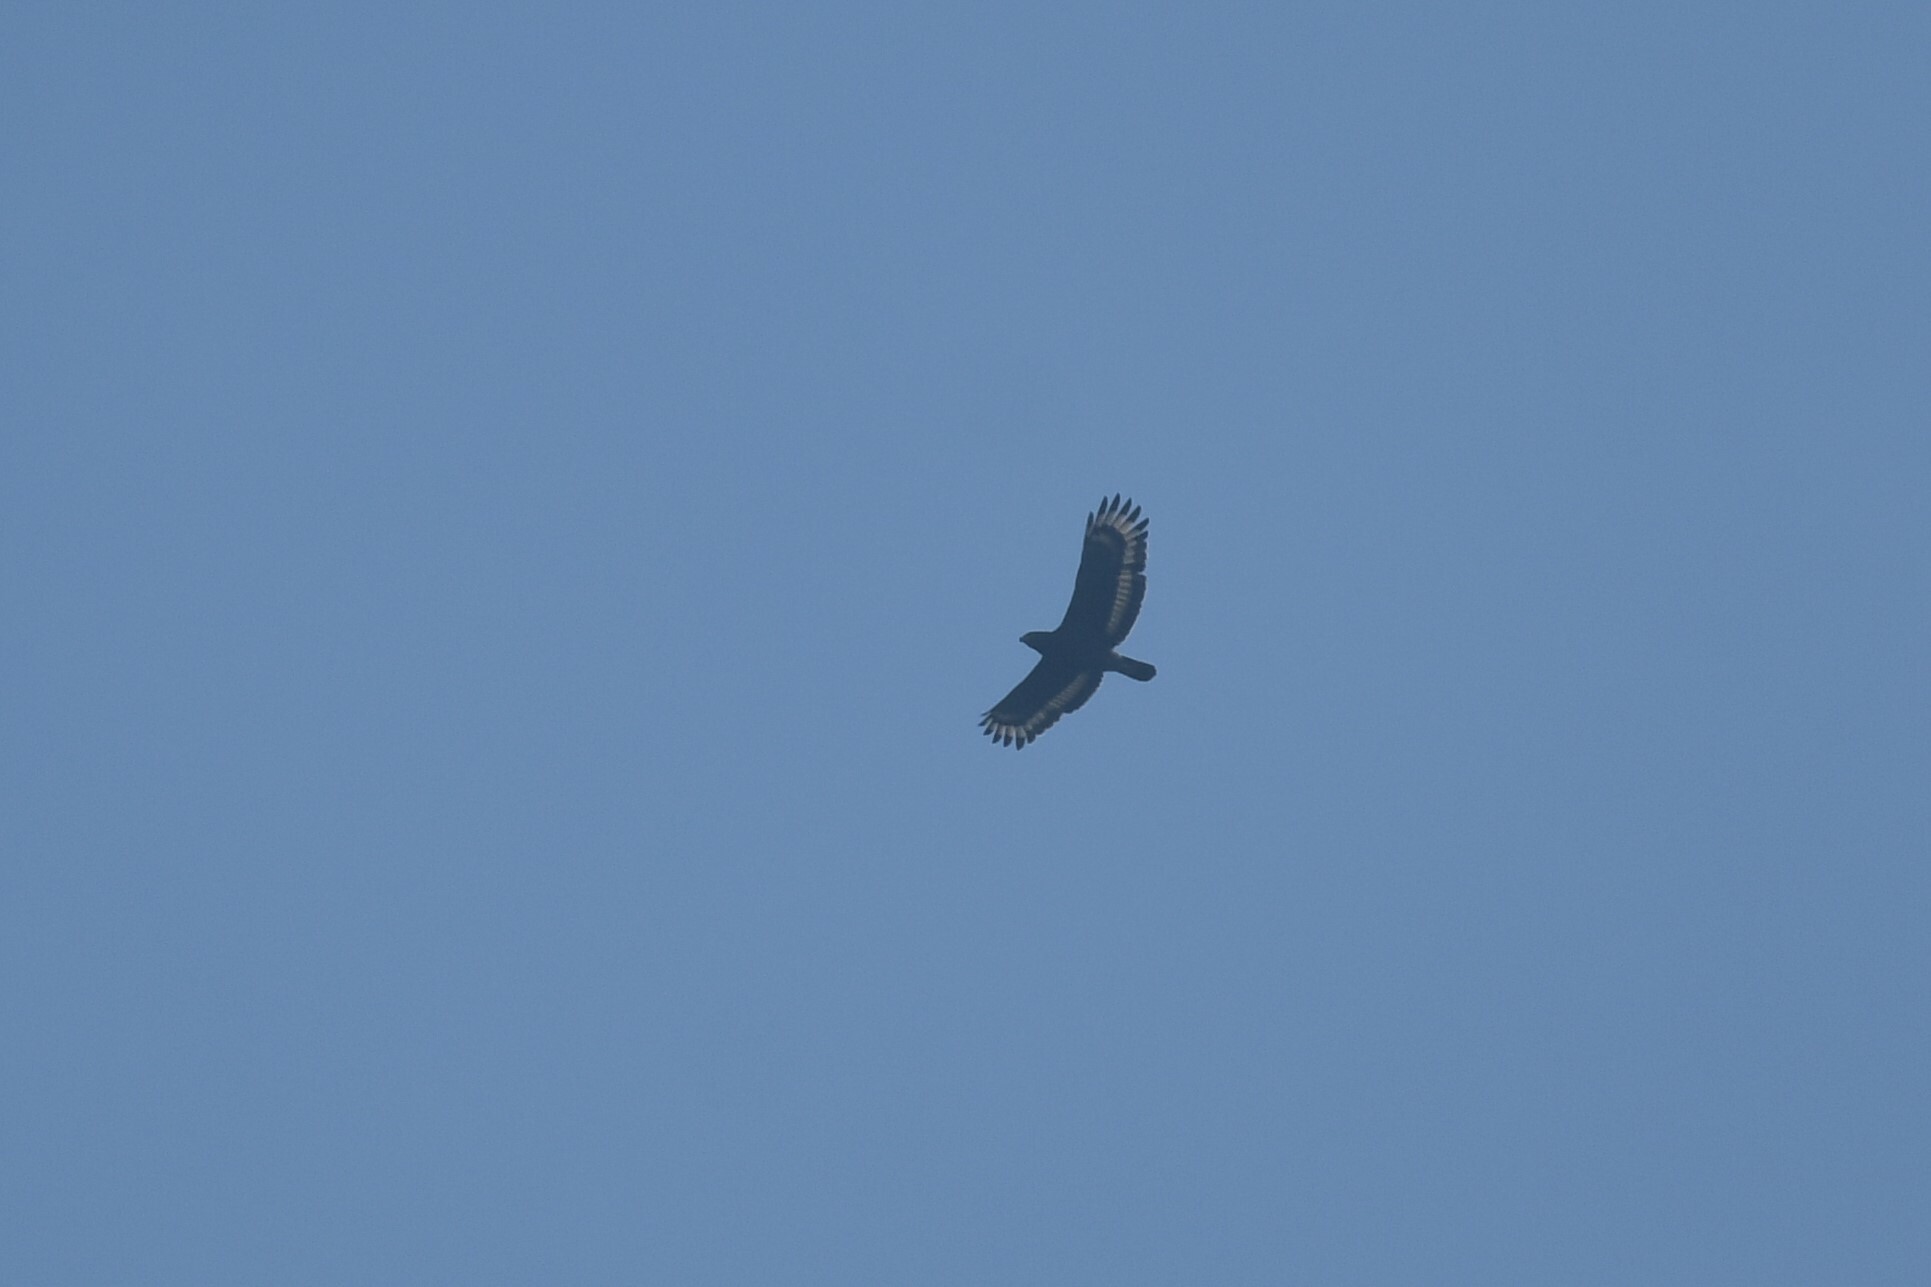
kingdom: Animalia
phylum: Chordata
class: Aves
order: Accipitriformes
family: Accipitridae
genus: Spilornis
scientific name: Spilornis cheela
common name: Crested serpent eagle
